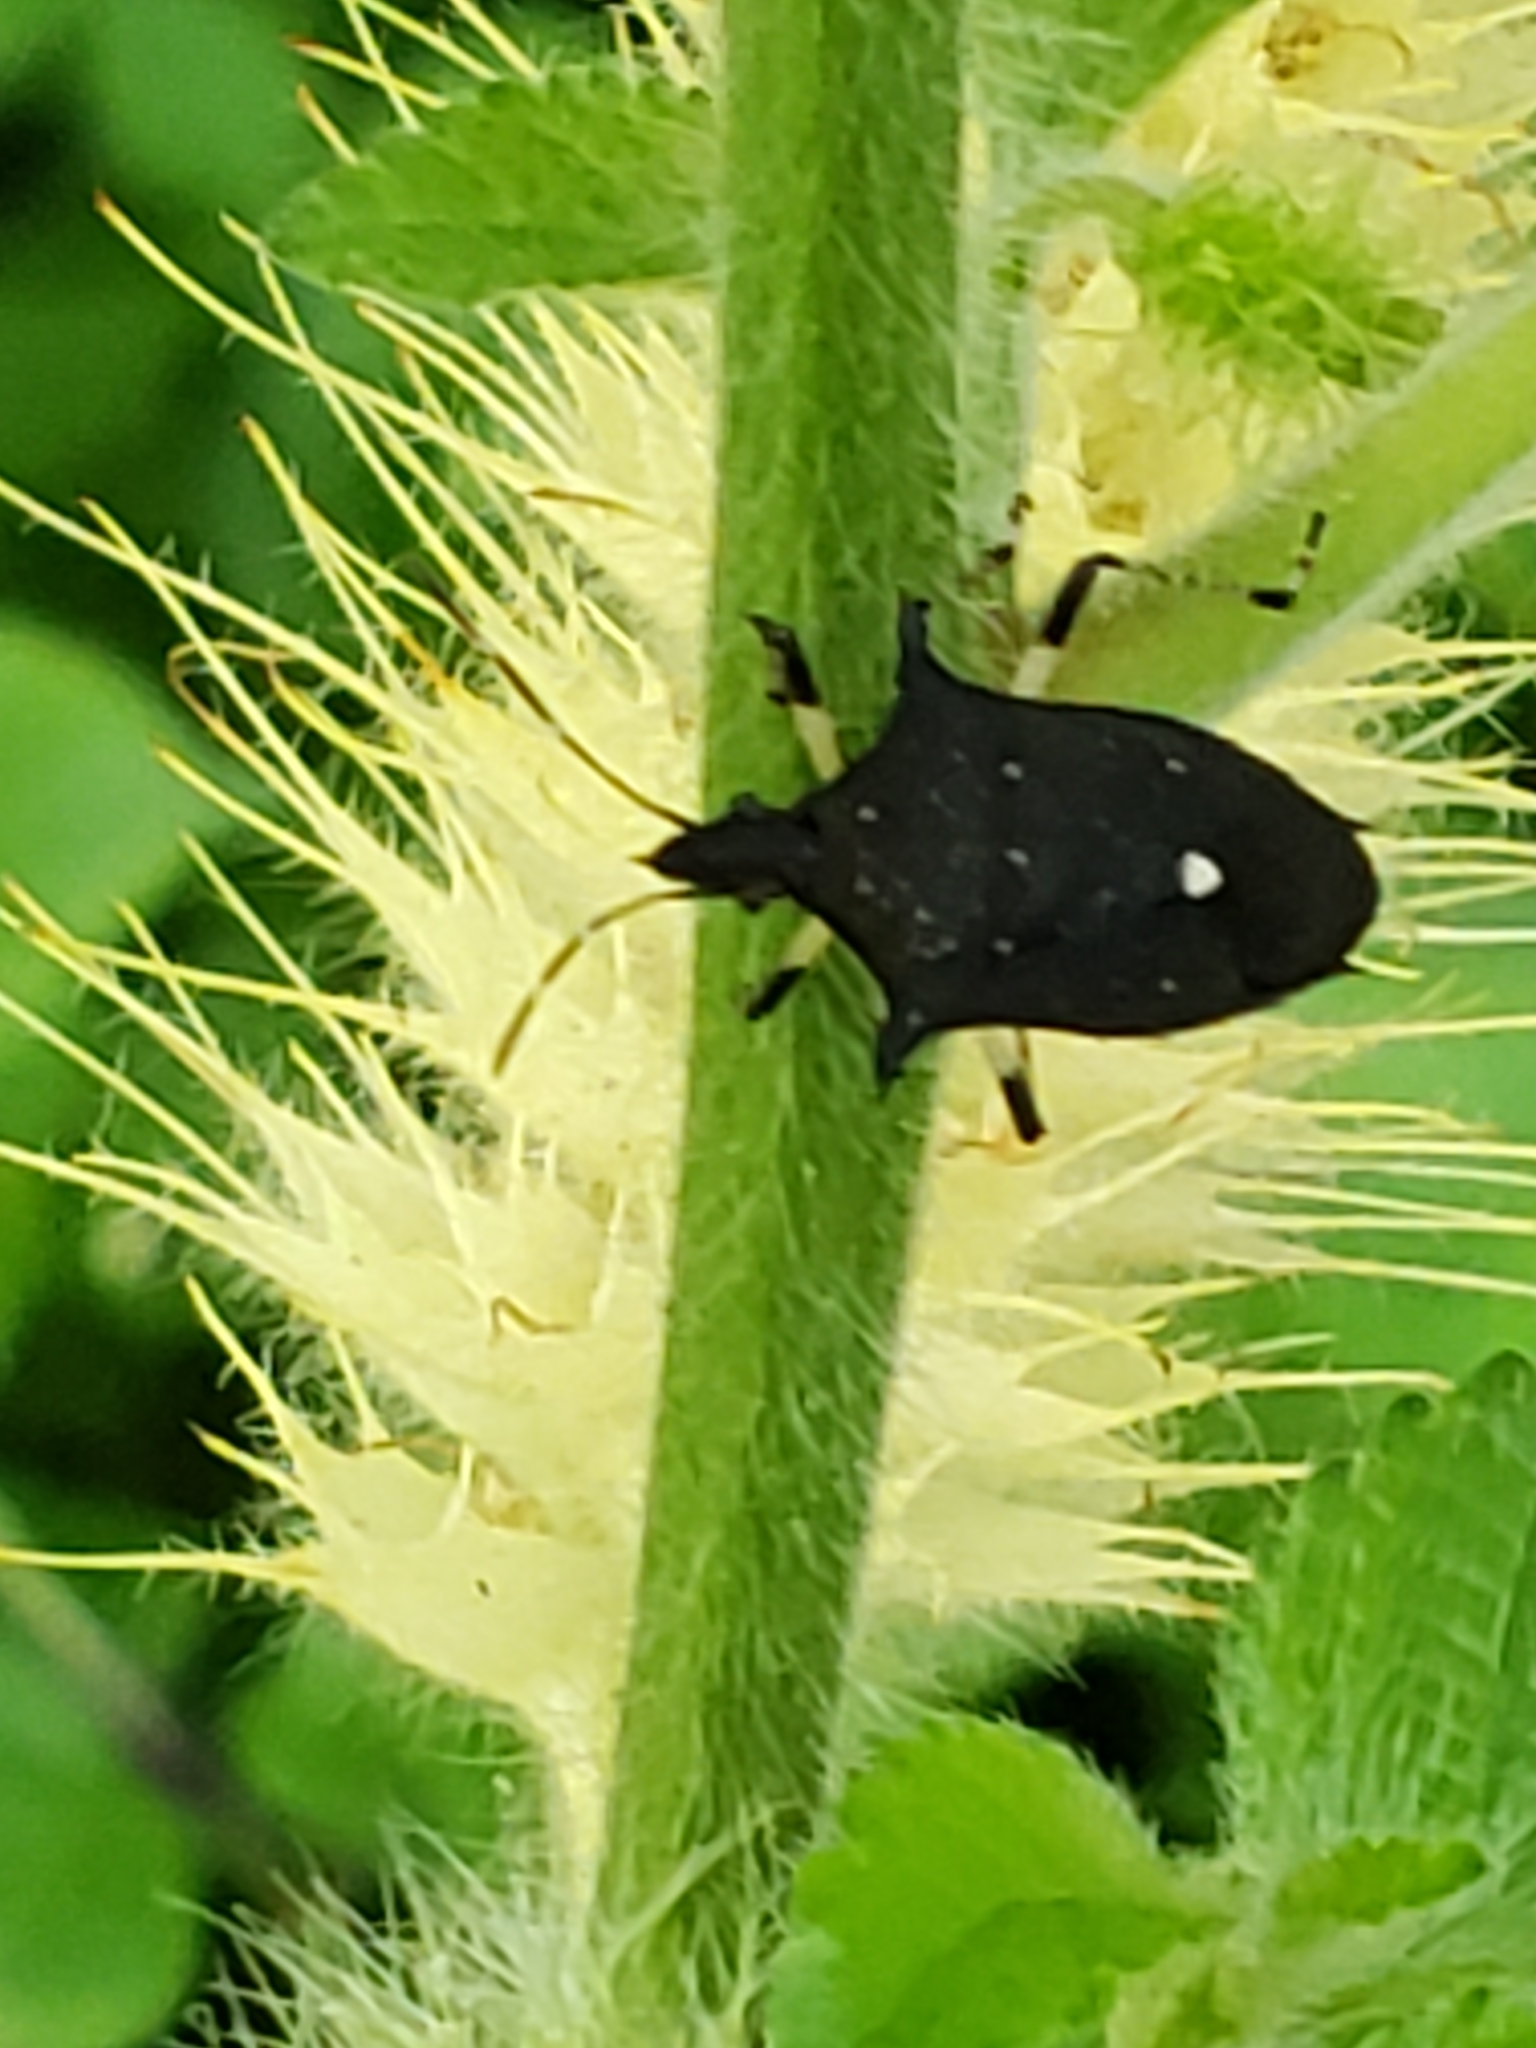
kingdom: Animalia
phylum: Arthropoda
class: Insecta
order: Hemiptera
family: Pentatomidae
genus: Proxys
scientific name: Proxys punctulatus
